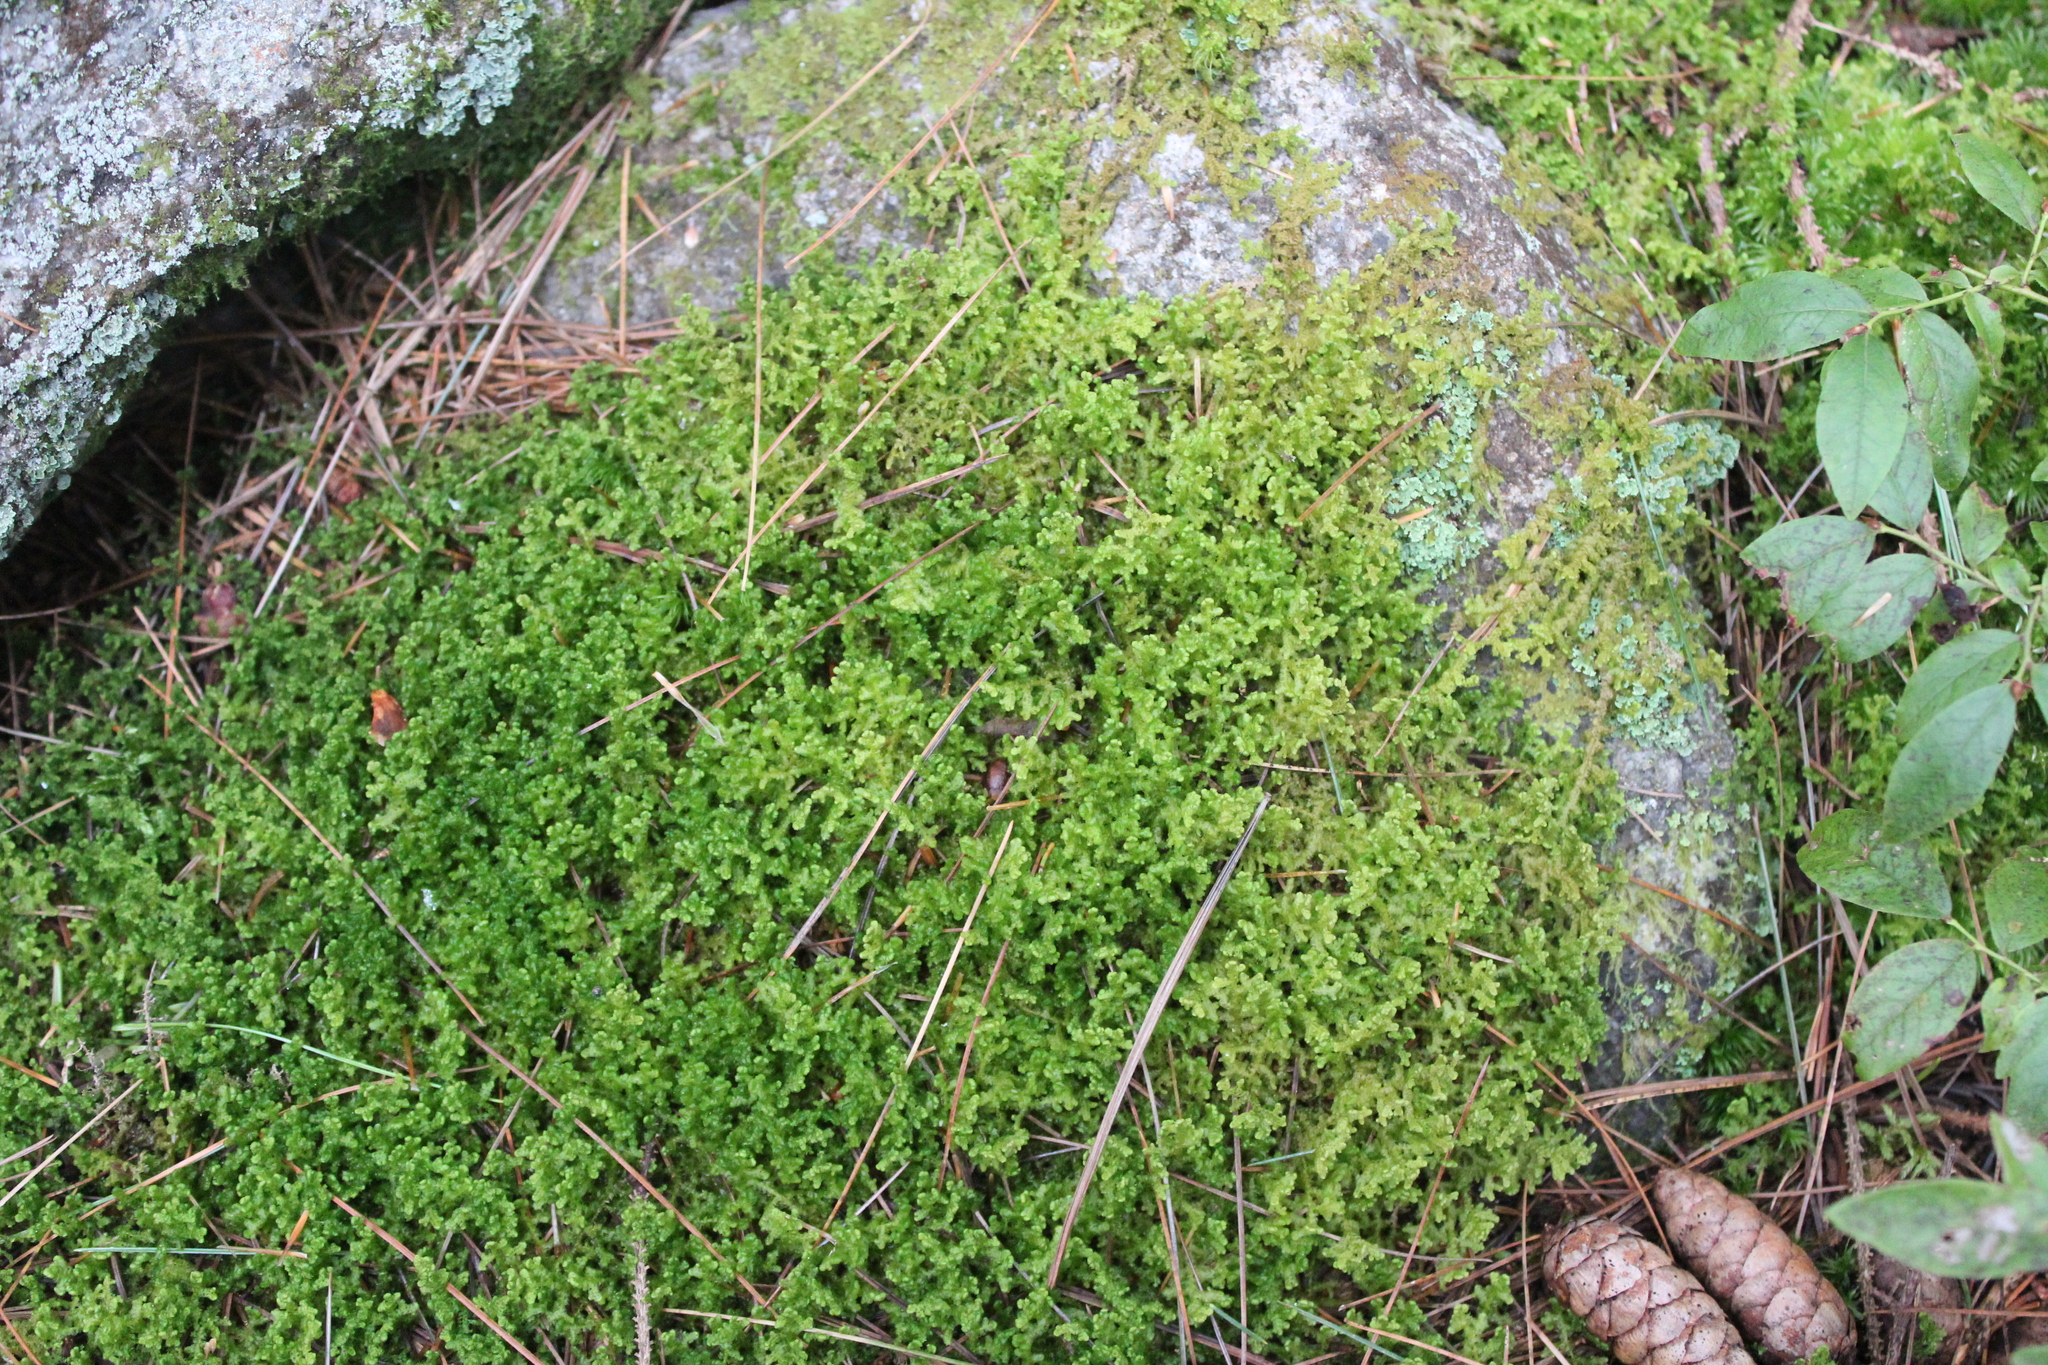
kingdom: Plantae
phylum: Marchantiophyta
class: Jungermanniopsida
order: Ptilidiales
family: Ptilidiaceae
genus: Ptilidium
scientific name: Ptilidium ciliare
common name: Ciliate fringewort
